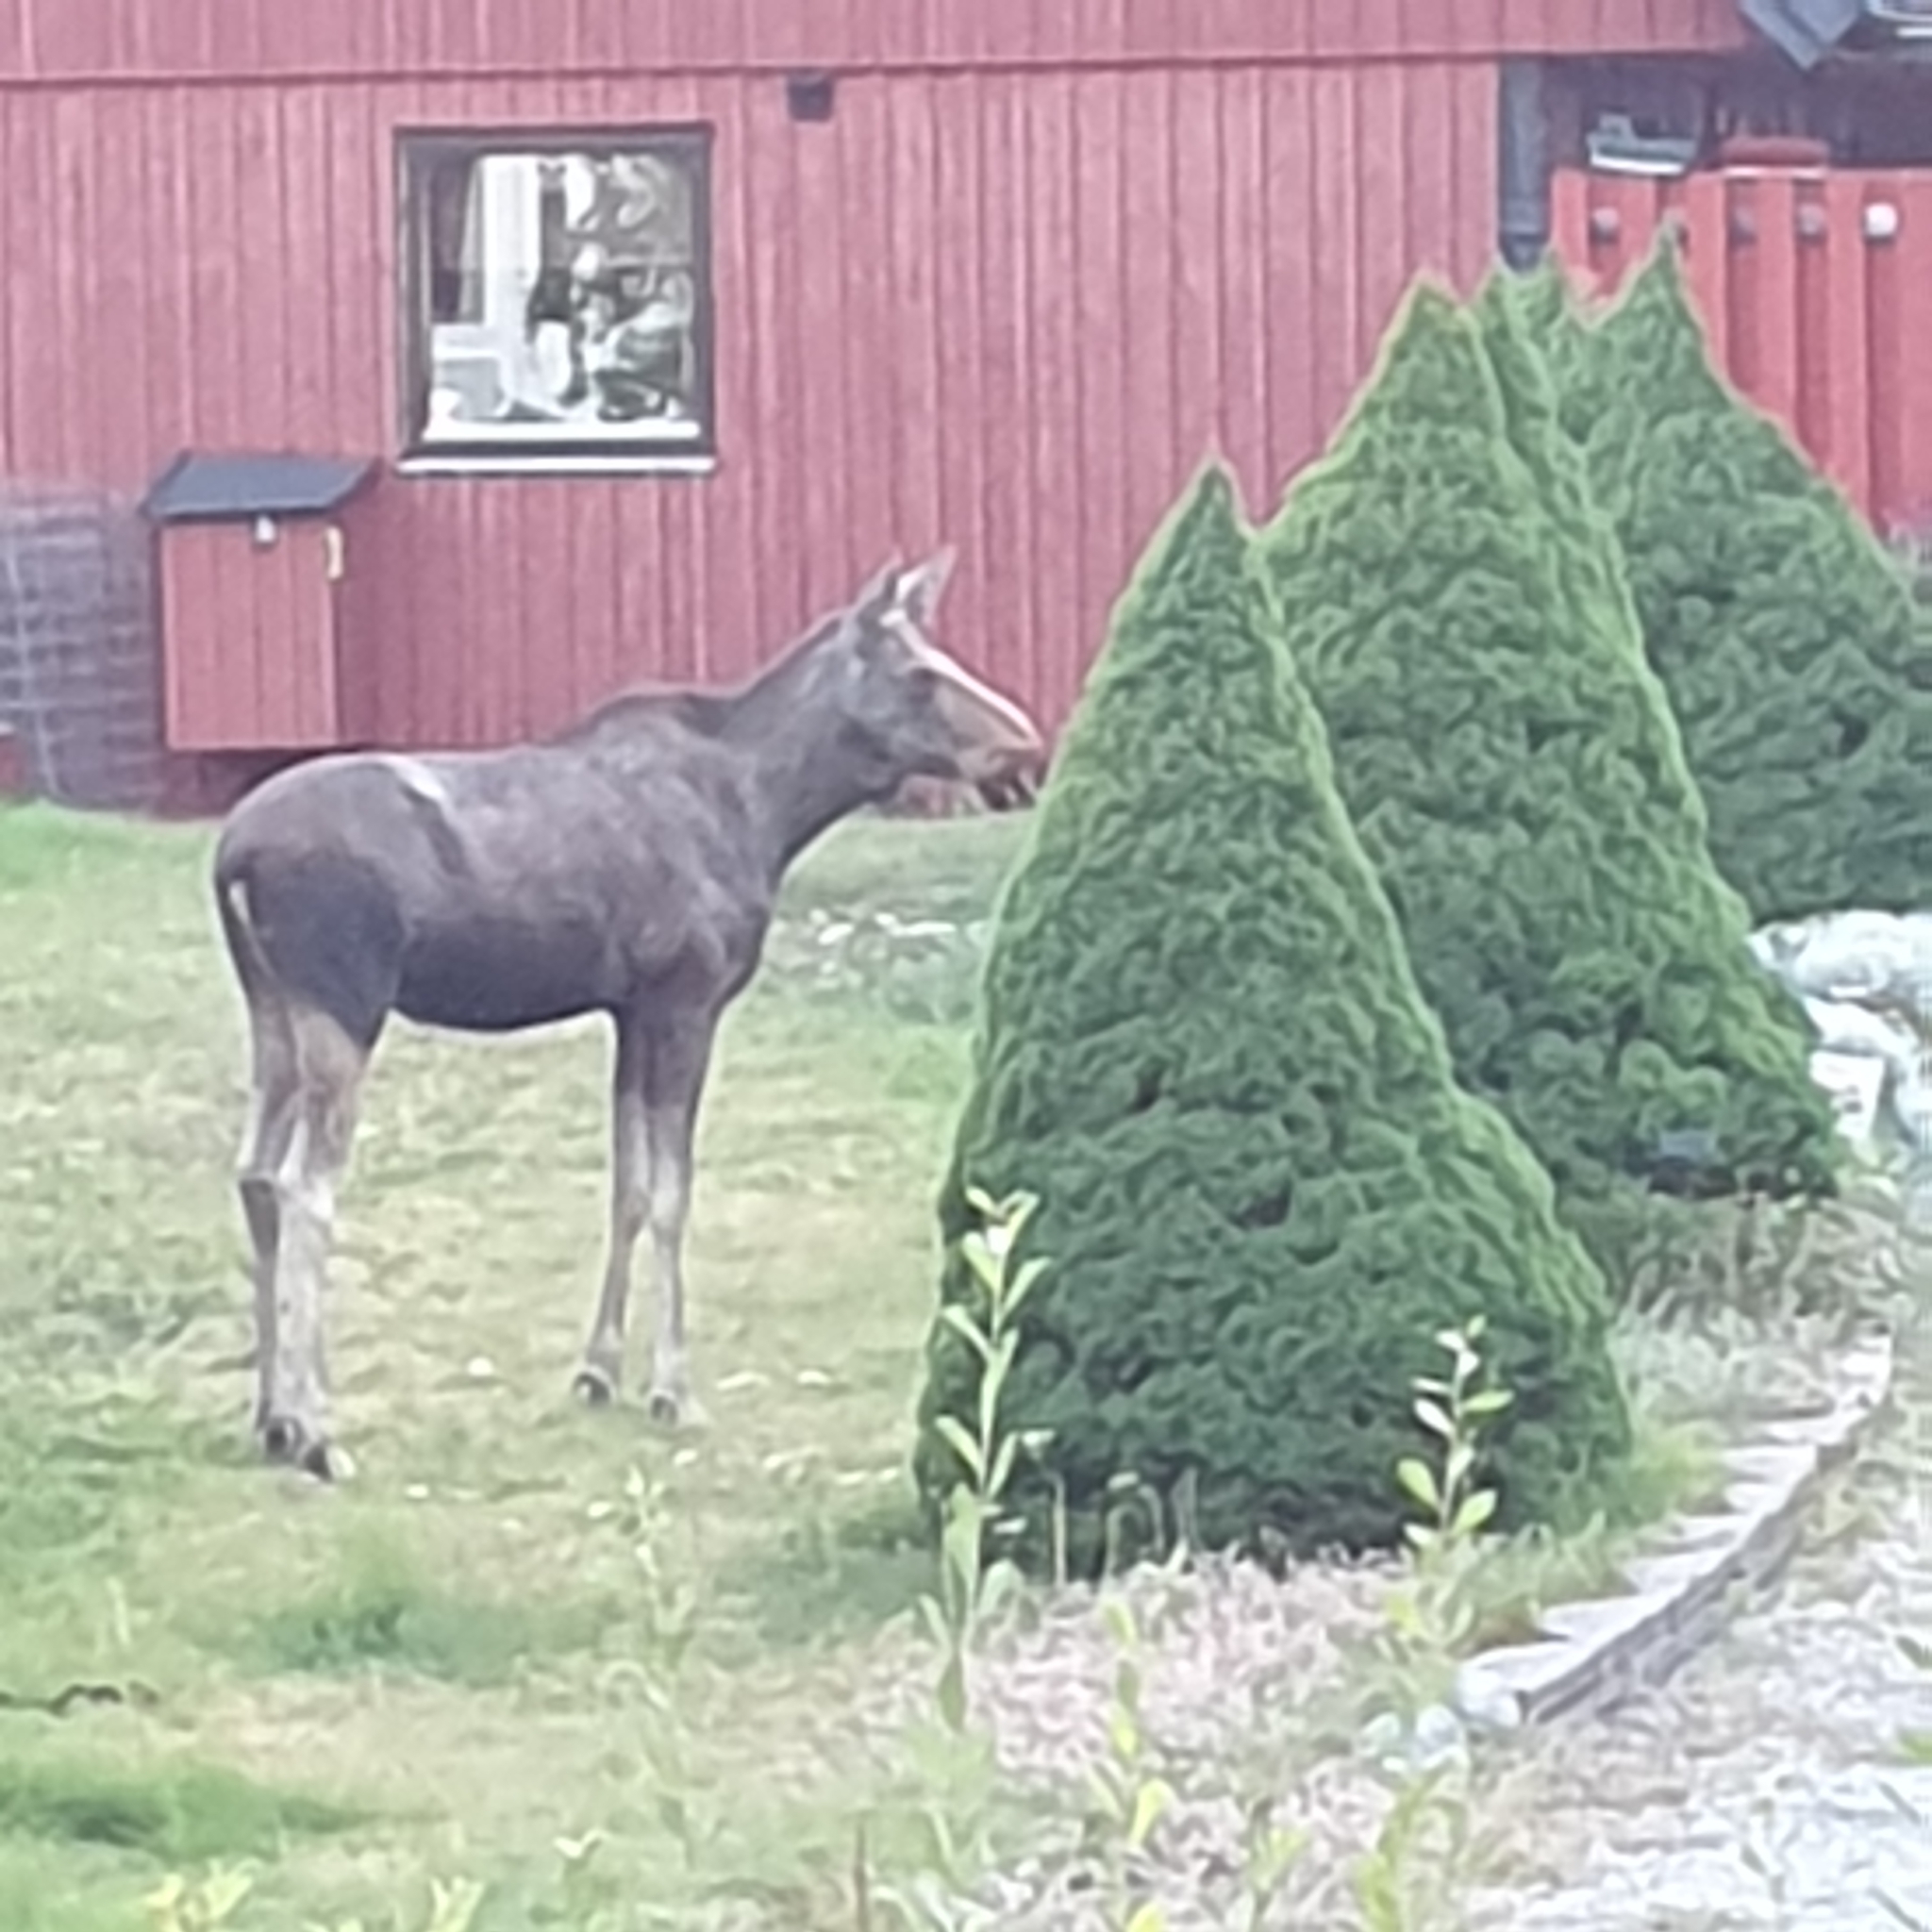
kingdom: Animalia
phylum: Chordata
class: Mammalia
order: Artiodactyla
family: Cervidae
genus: Alces
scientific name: Alces alces
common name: Moose
